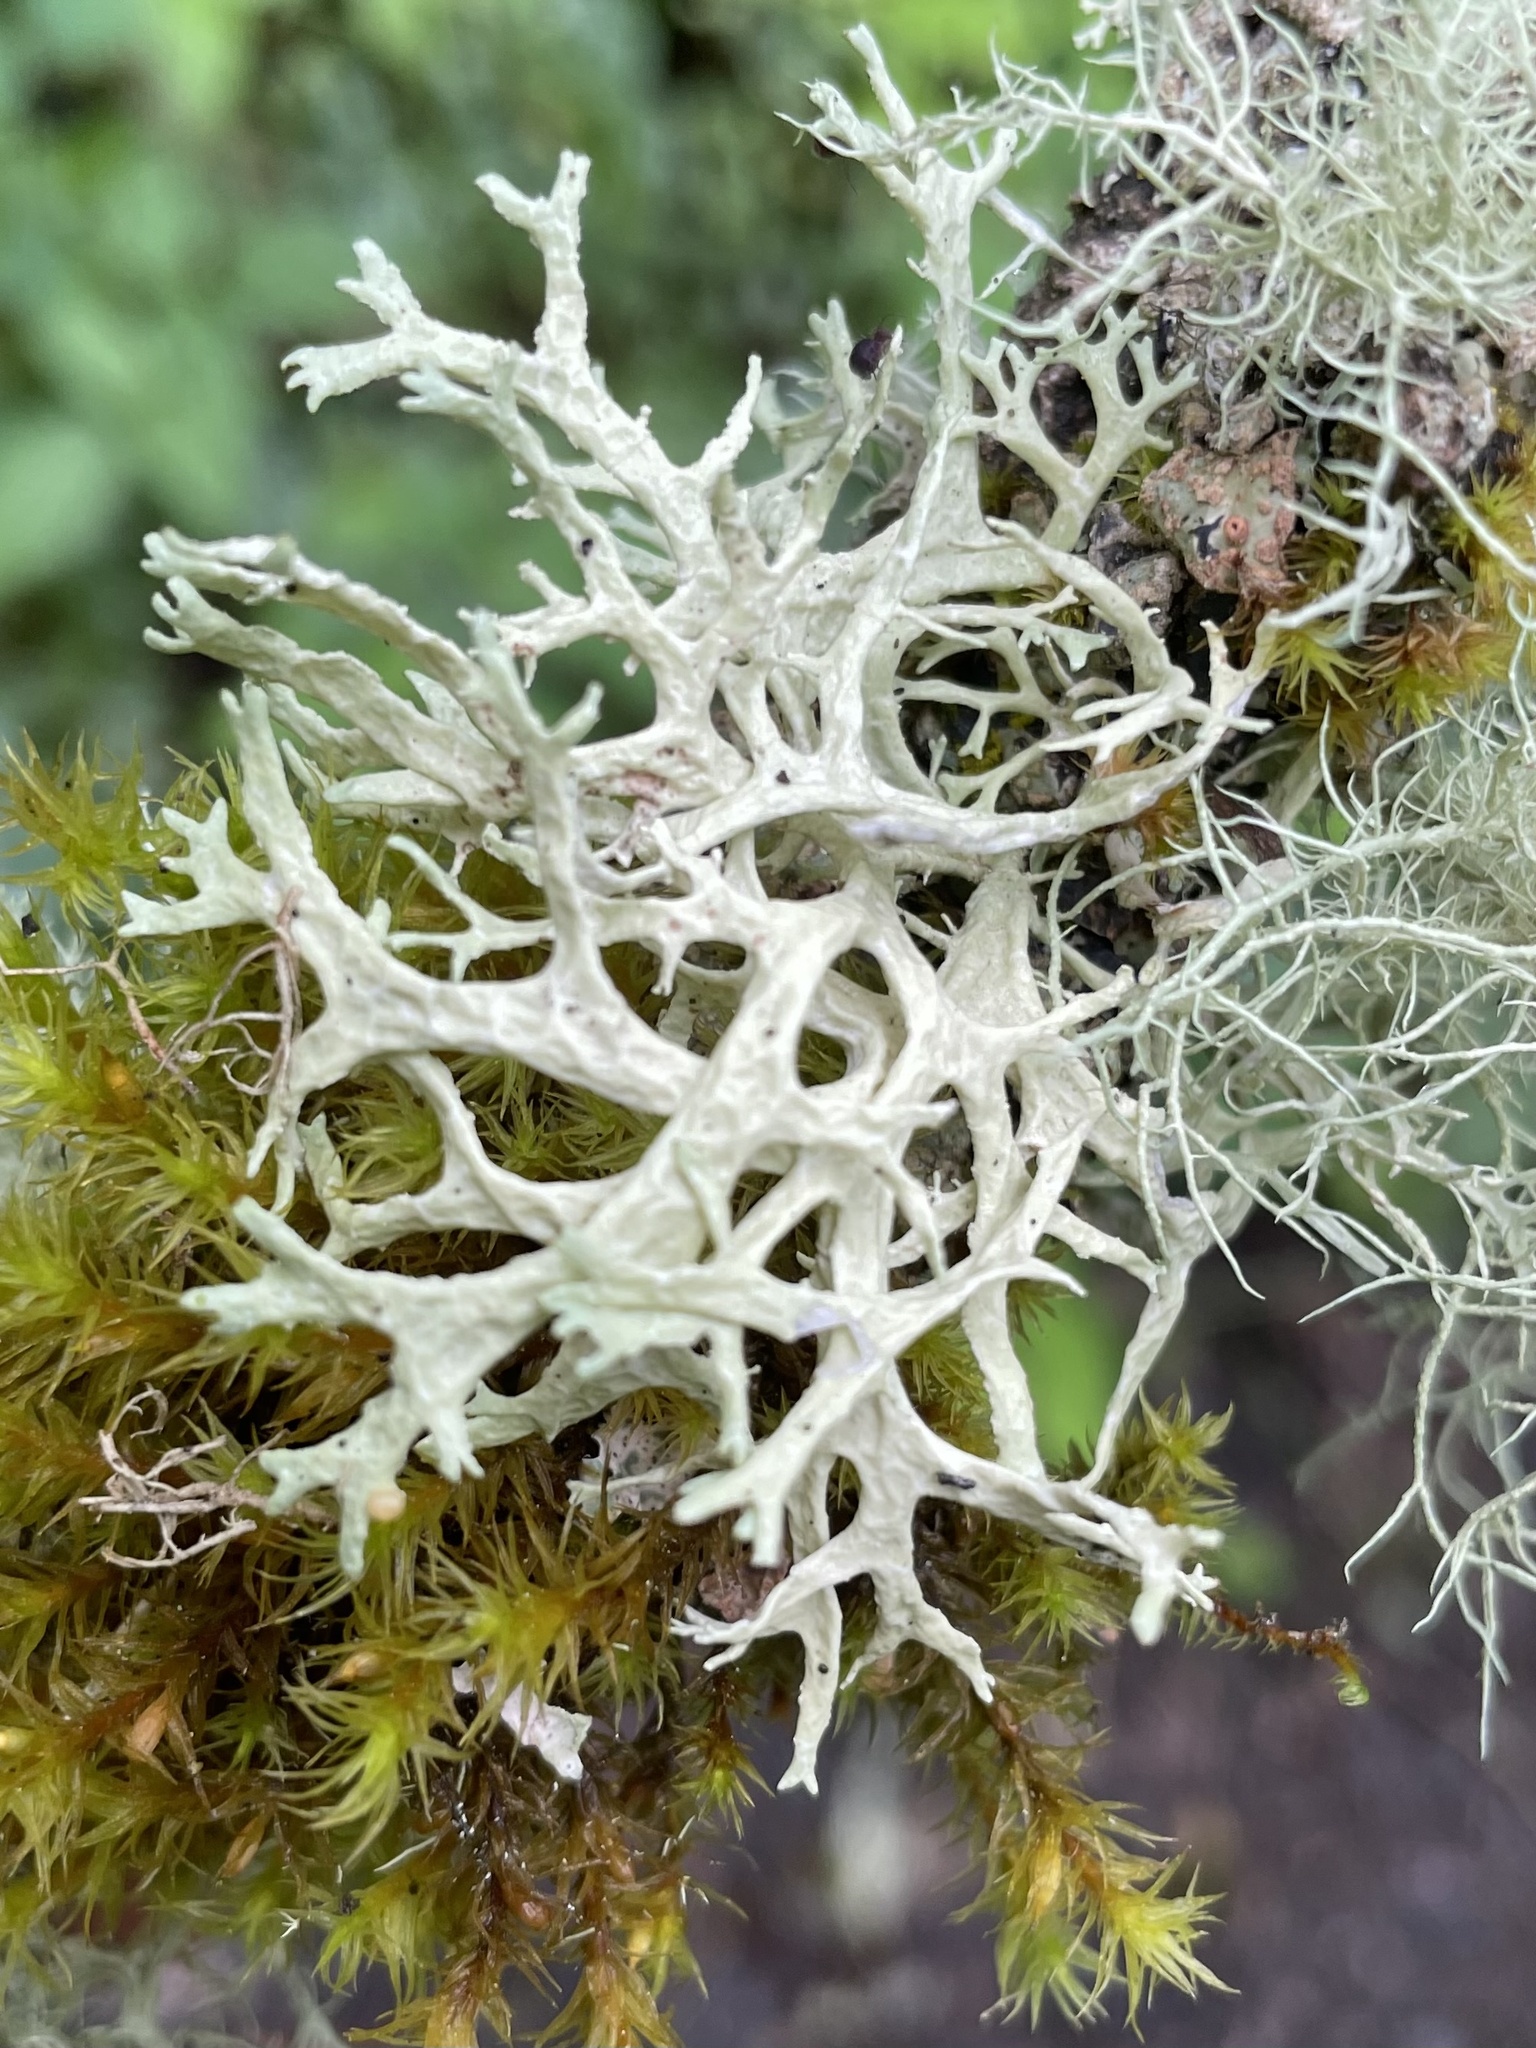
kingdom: Fungi
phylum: Ascomycota
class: Lecanoromycetes
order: Lecanorales
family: Parmeliaceae
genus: Evernia
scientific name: Evernia prunastri
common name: Oak moss
